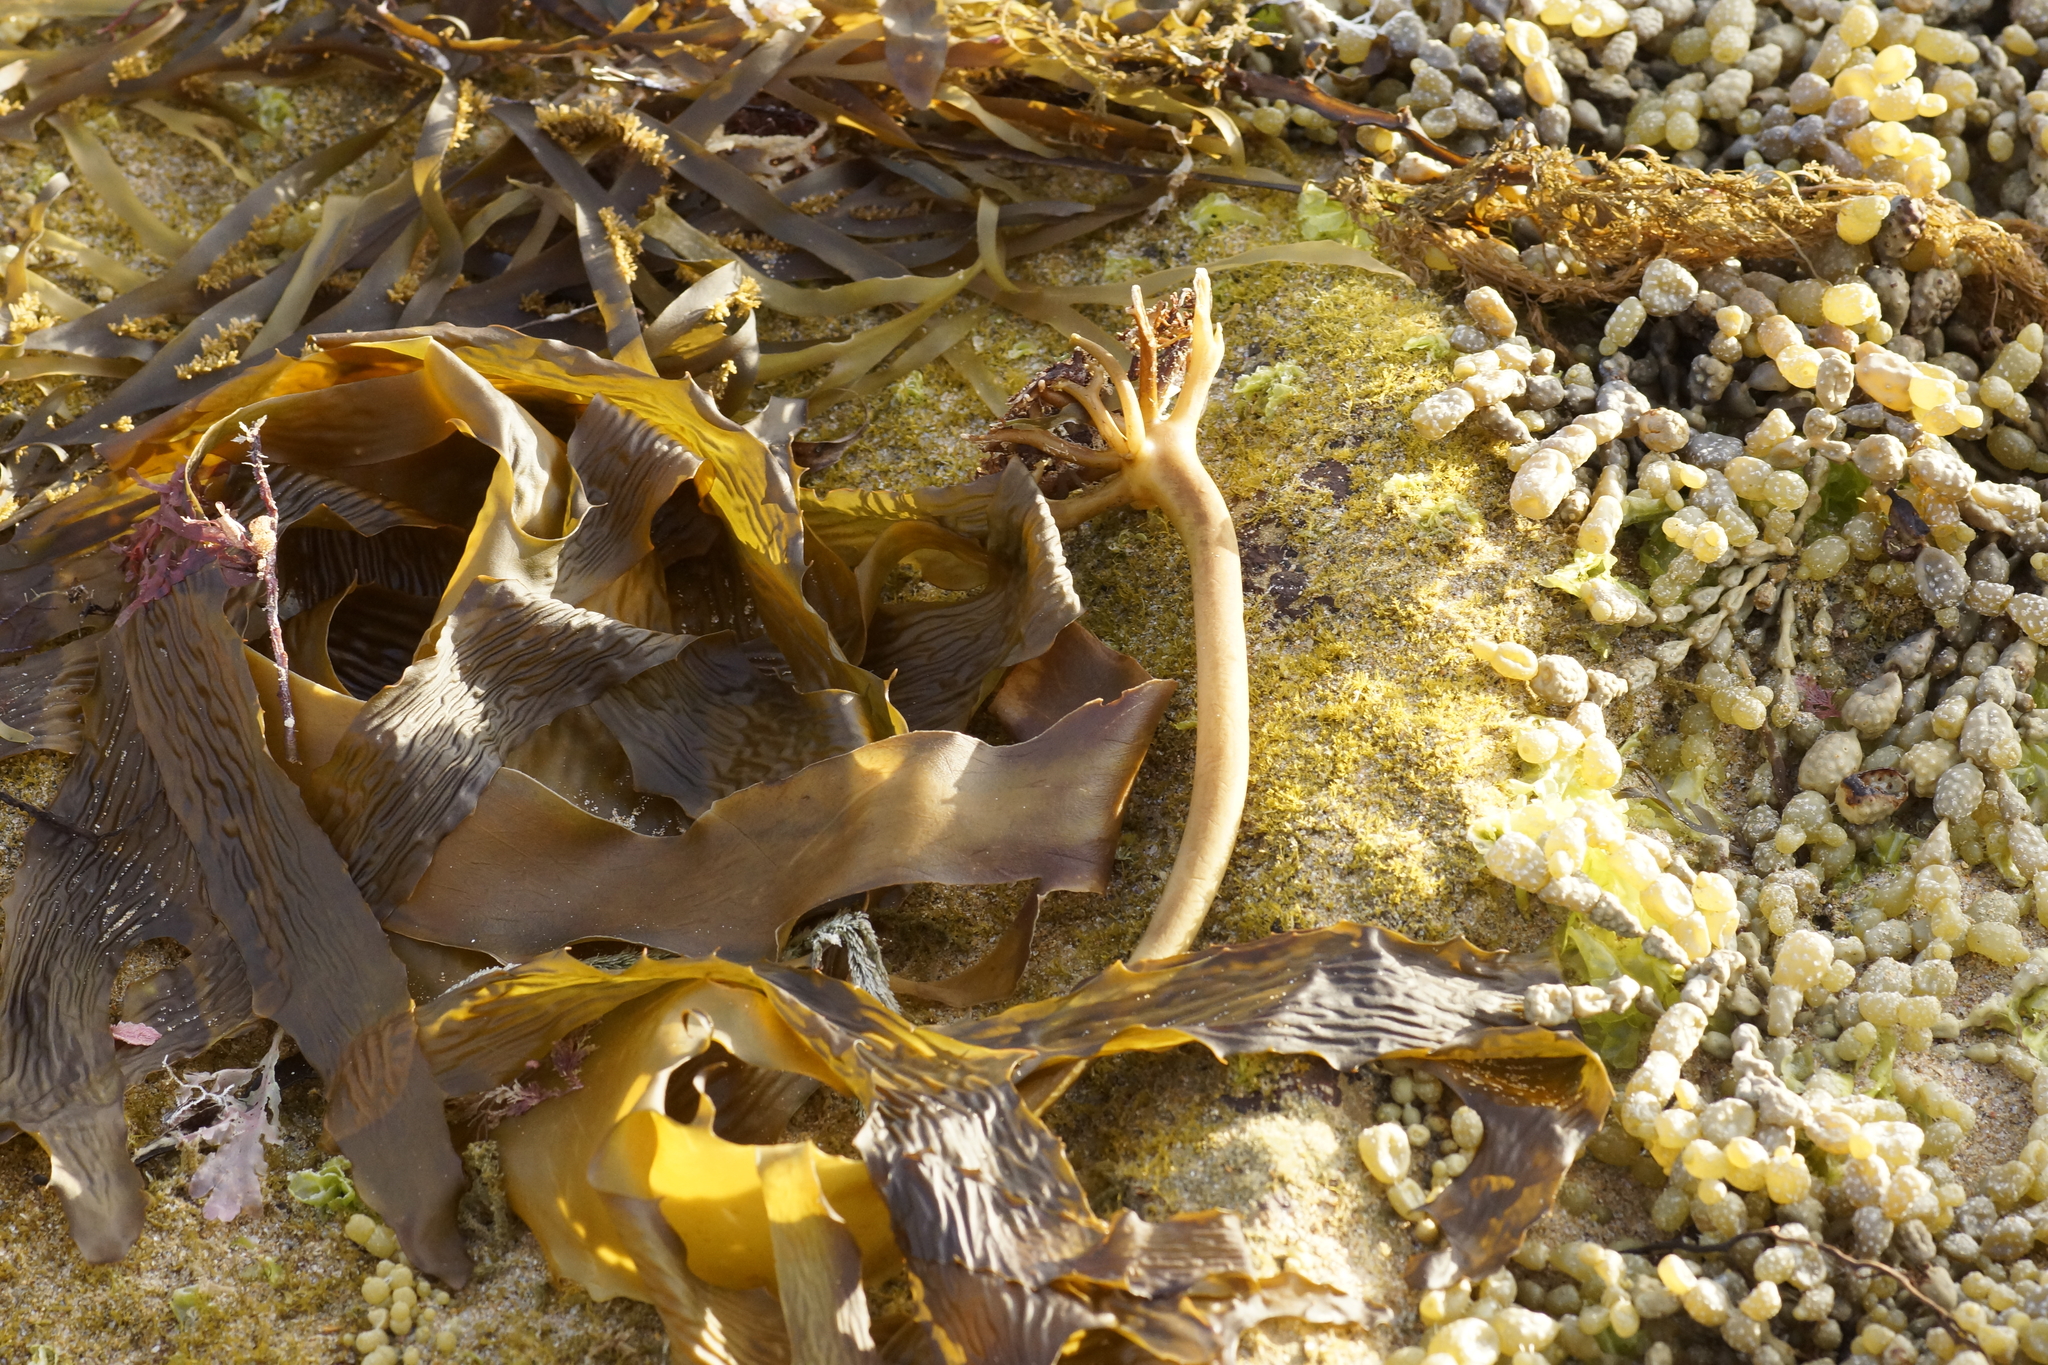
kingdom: Chromista
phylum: Ochrophyta
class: Phaeophyceae
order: Laminariales
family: Lessoniaceae
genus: Ecklonia
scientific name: Ecklonia radiata
